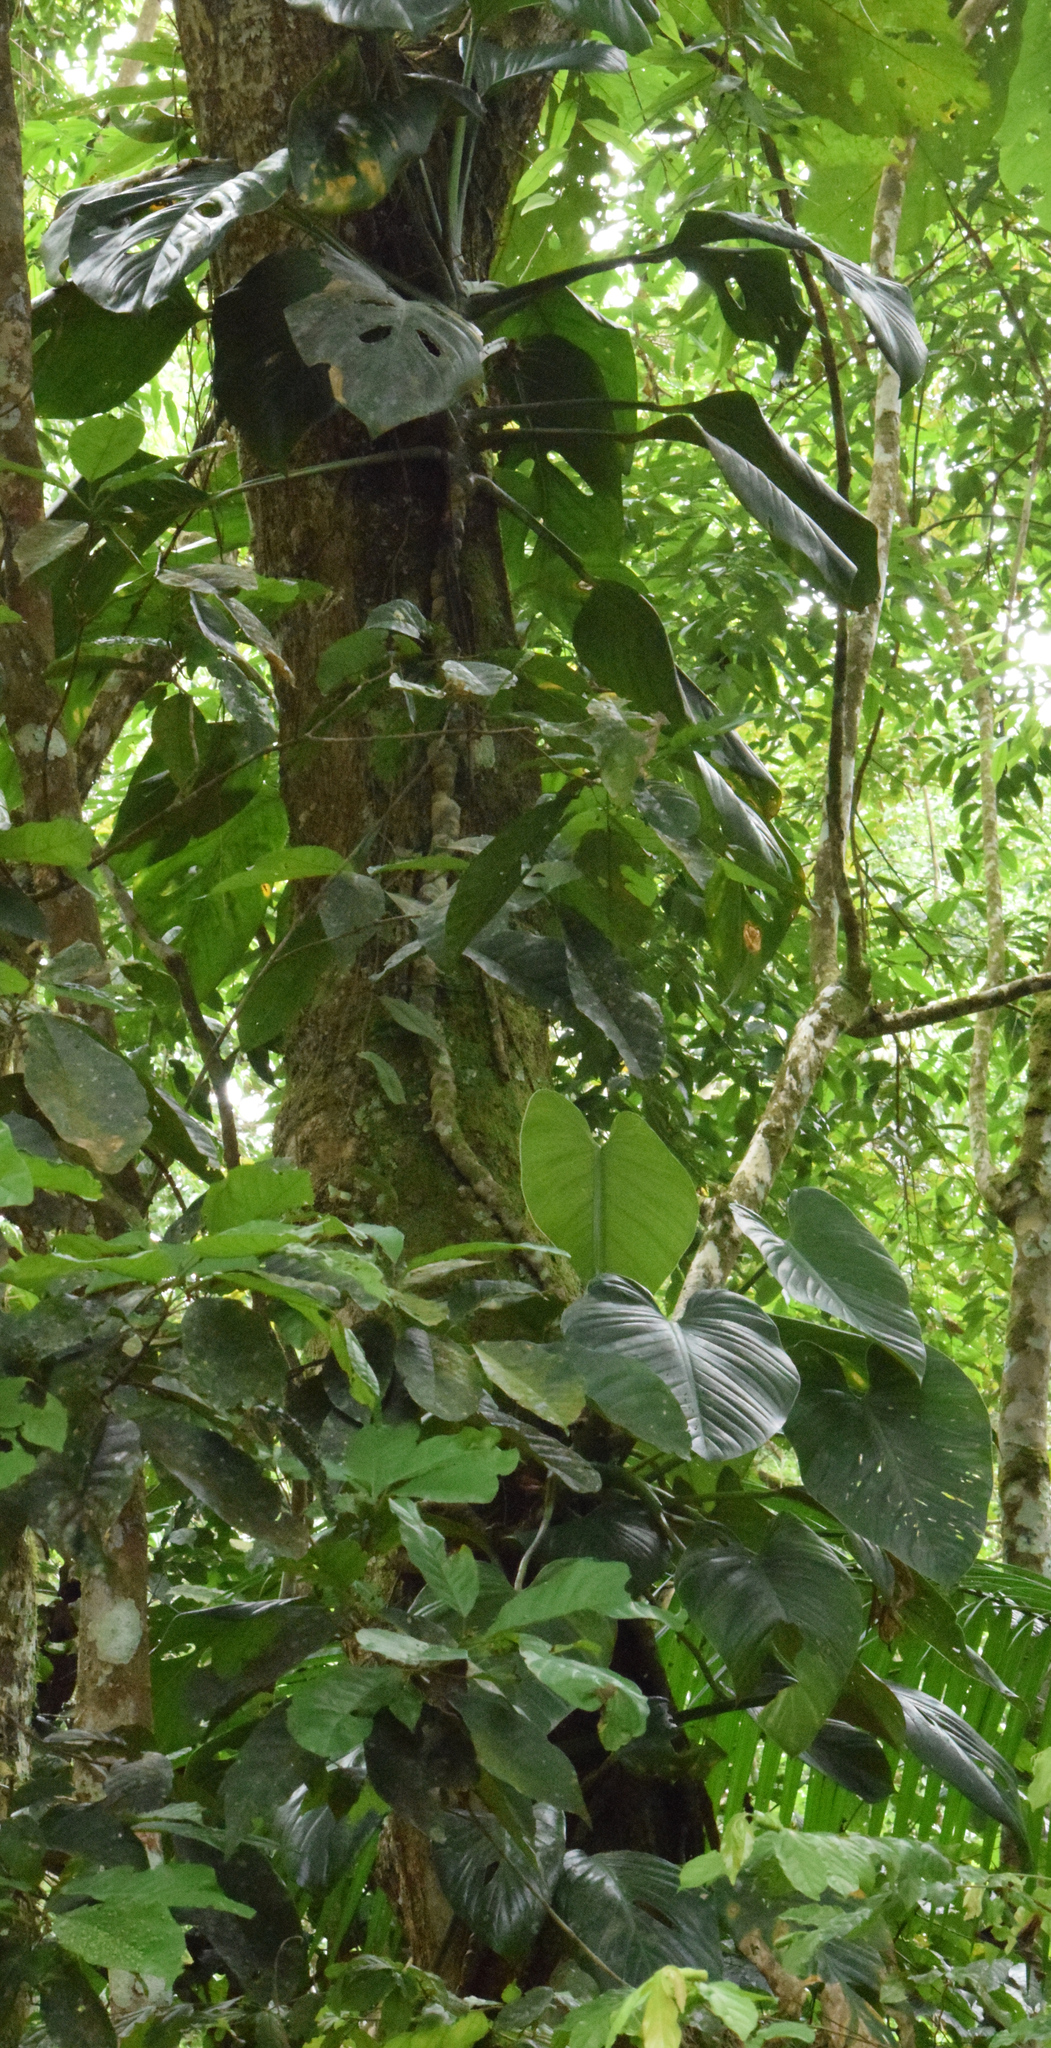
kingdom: Plantae
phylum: Tracheophyta
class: Liliopsida
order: Alismatales
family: Araceae
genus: Monstera
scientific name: Monstera adansonii
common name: Tarovine
